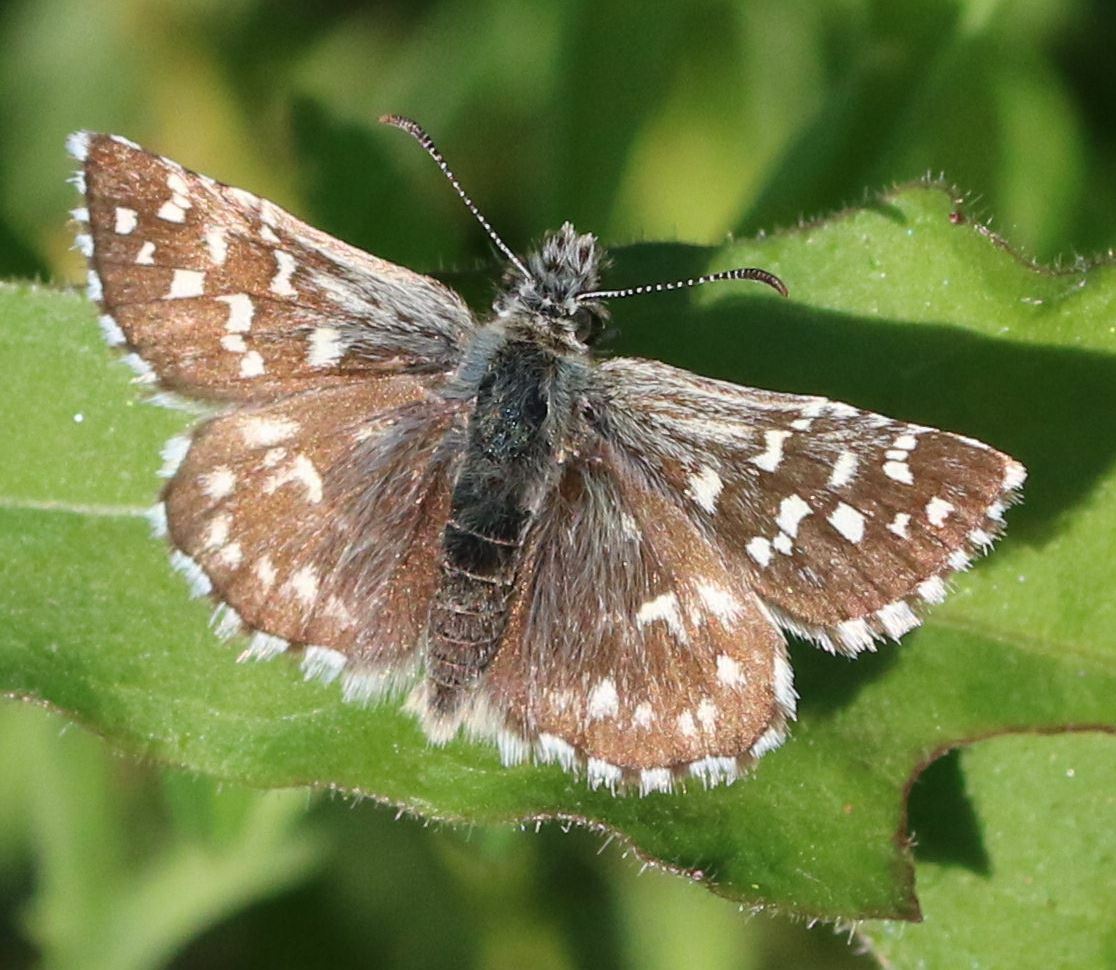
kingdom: Animalia
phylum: Arthropoda
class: Insecta
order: Lepidoptera
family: Hesperiidae
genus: Pyrgus
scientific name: Pyrgus malvoides
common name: Southern grizzled skipper
